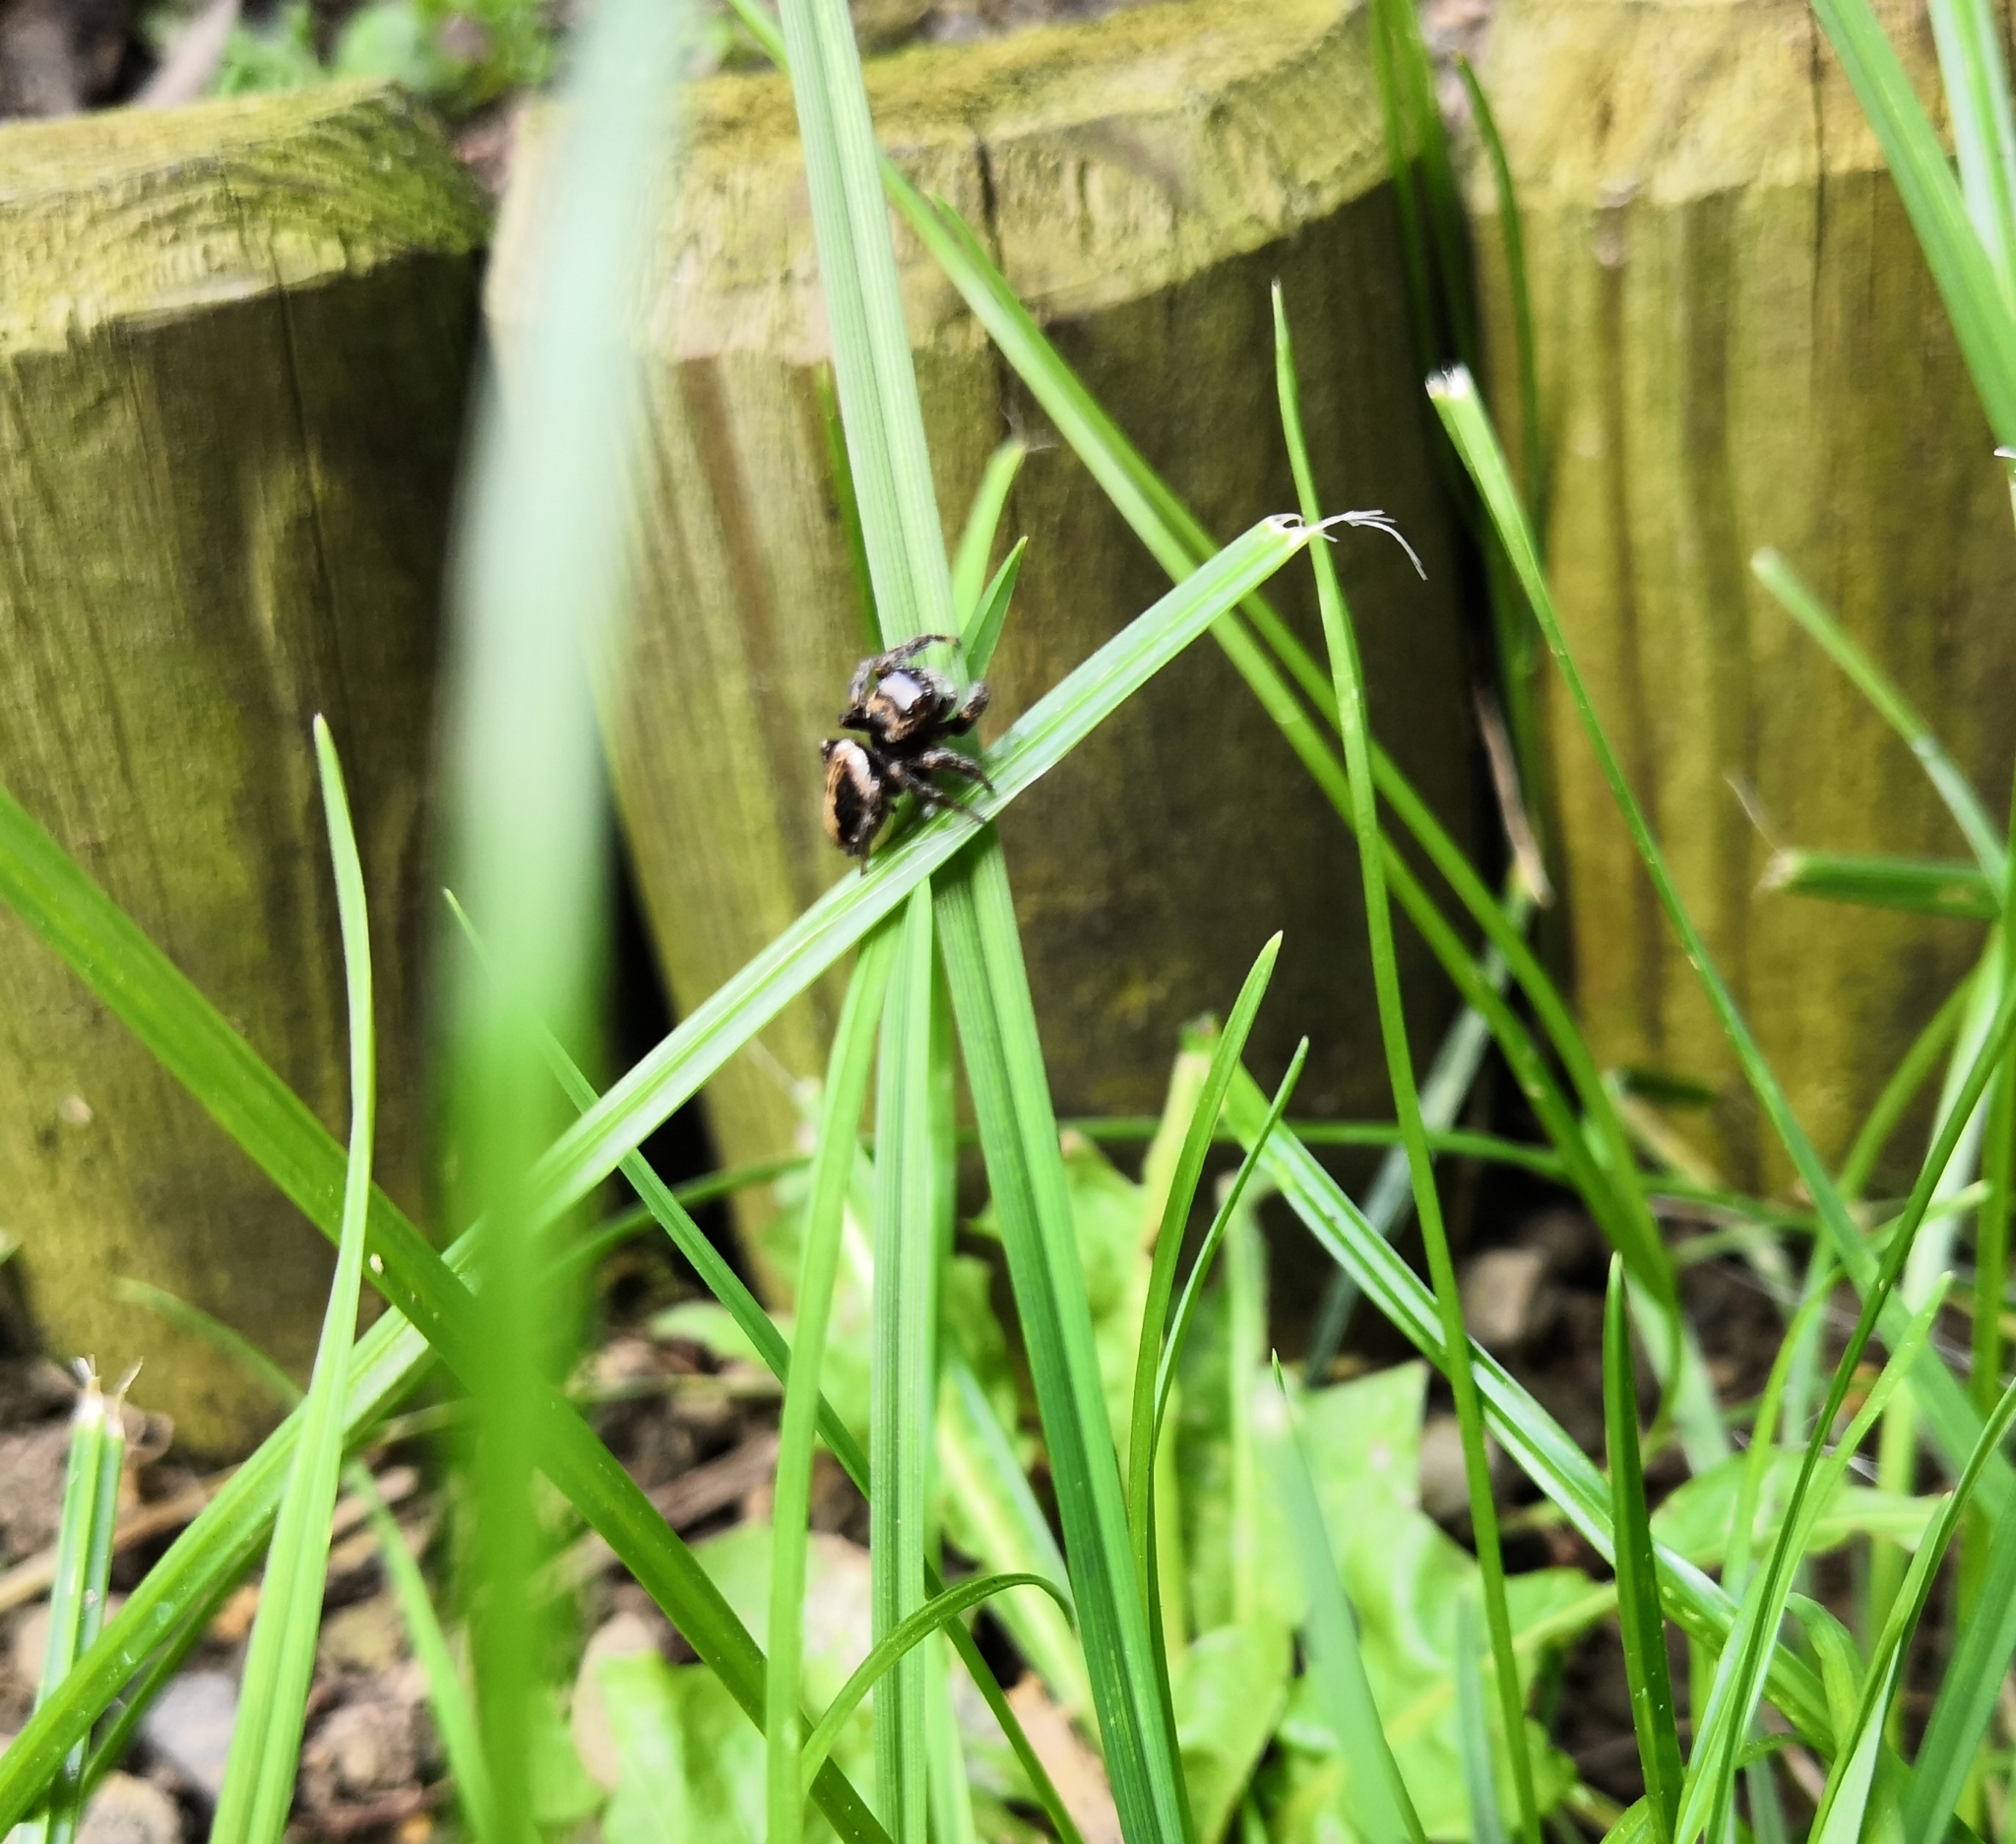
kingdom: Animalia
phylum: Arthropoda
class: Arachnida
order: Araneae
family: Salticidae
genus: Evarcha
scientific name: Evarcha falcata
